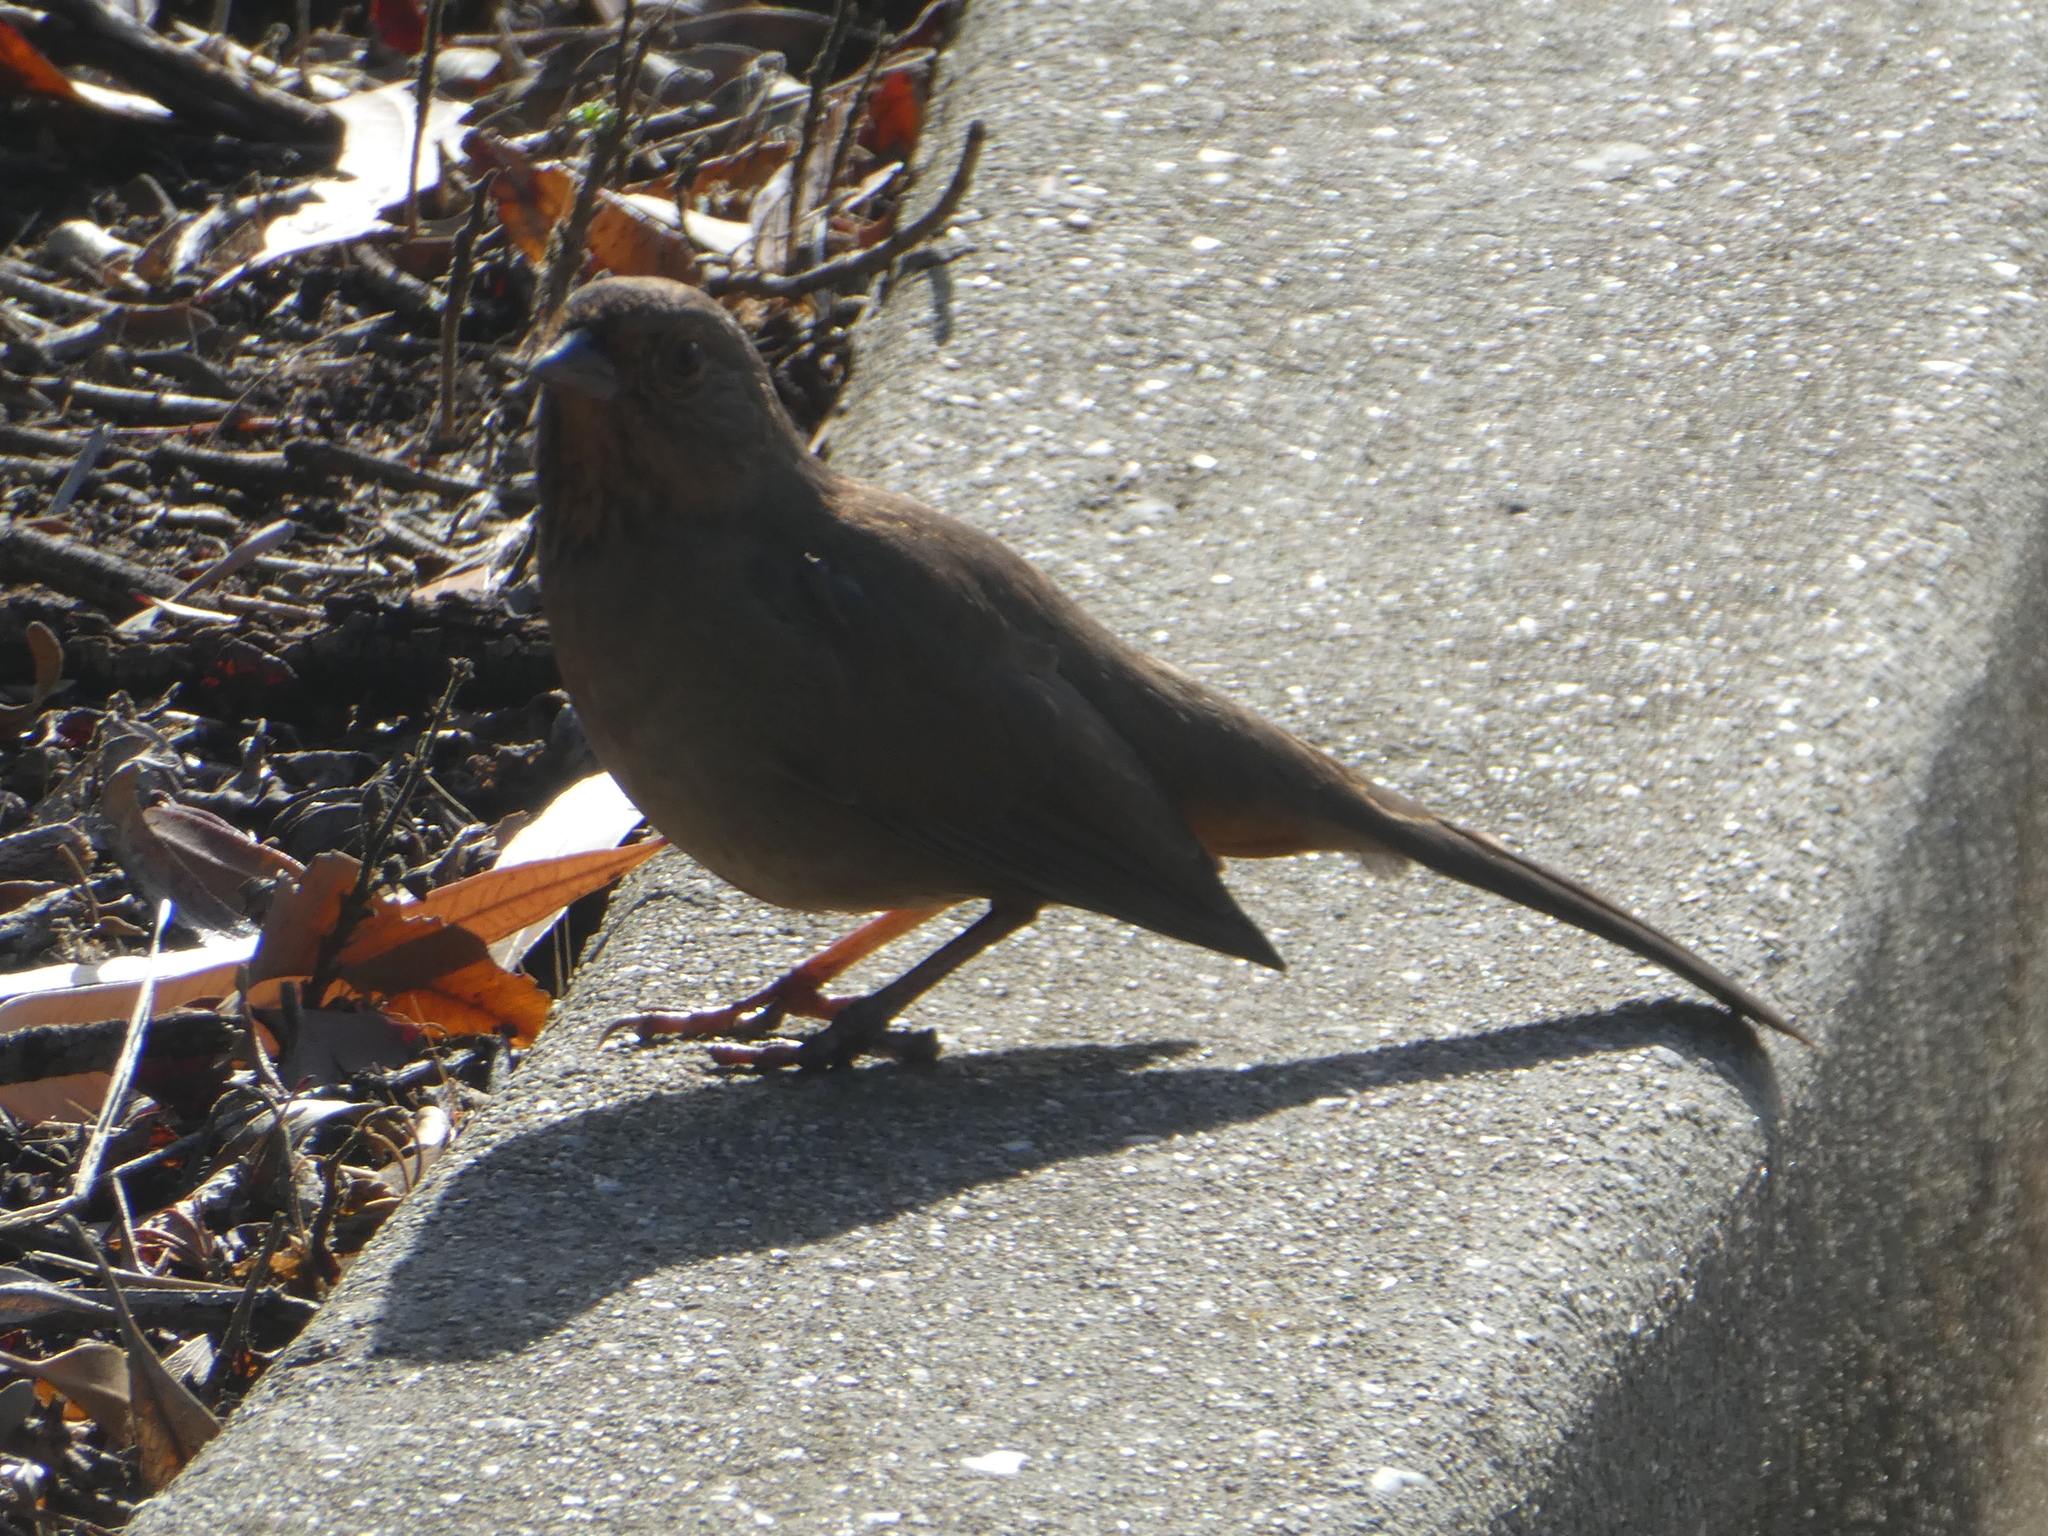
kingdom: Animalia
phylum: Chordata
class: Aves
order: Passeriformes
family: Passerellidae
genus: Melozone
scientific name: Melozone crissalis
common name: California towhee
